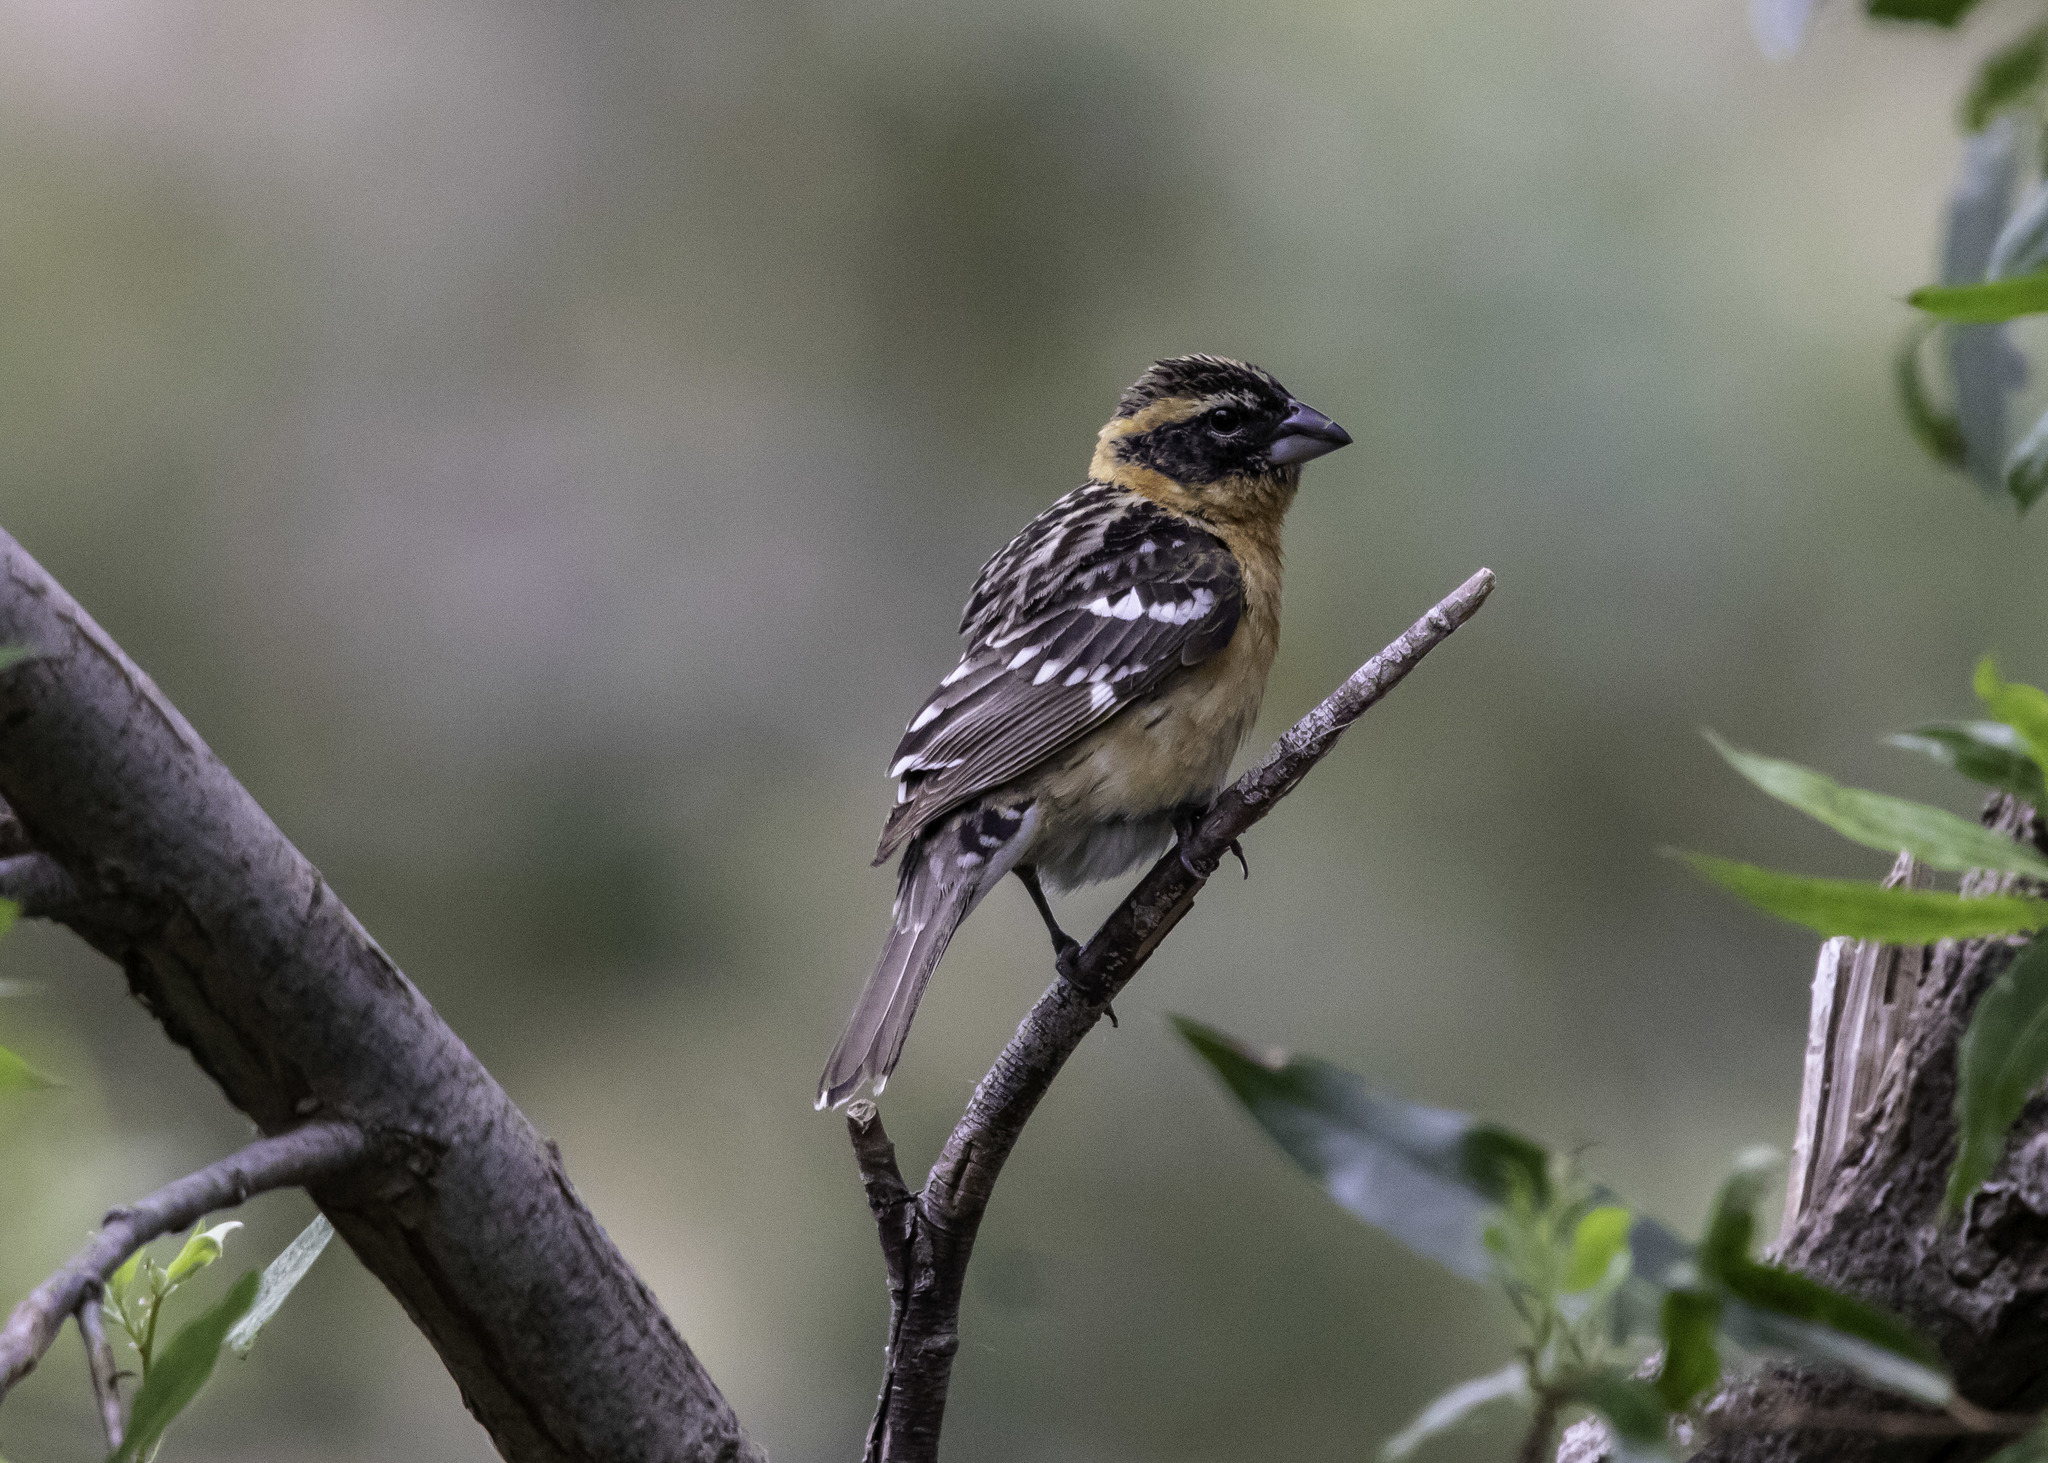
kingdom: Animalia
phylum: Chordata
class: Aves
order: Passeriformes
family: Cardinalidae
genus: Pheucticus
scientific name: Pheucticus melanocephalus
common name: Black-headed grosbeak
